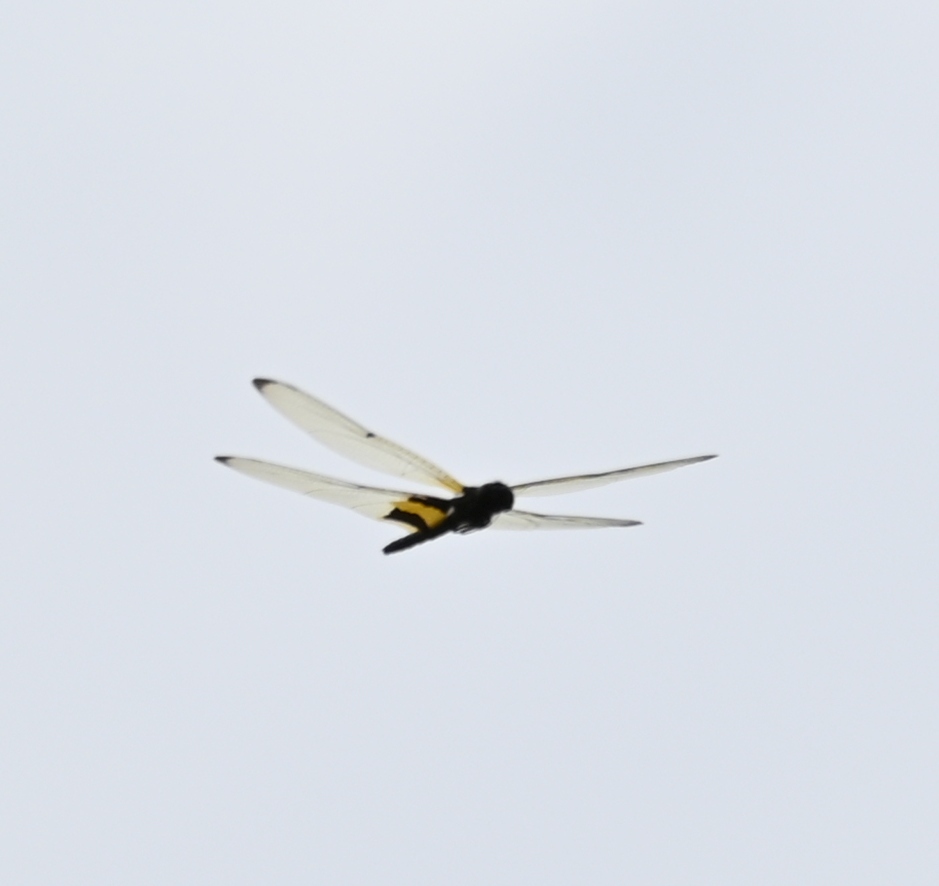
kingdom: Animalia
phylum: Arthropoda
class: Insecta
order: Odonata
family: Libellulidae
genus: Rhyothemis
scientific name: Rhyothemis phyllis
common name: Yellow-barred flutterer
